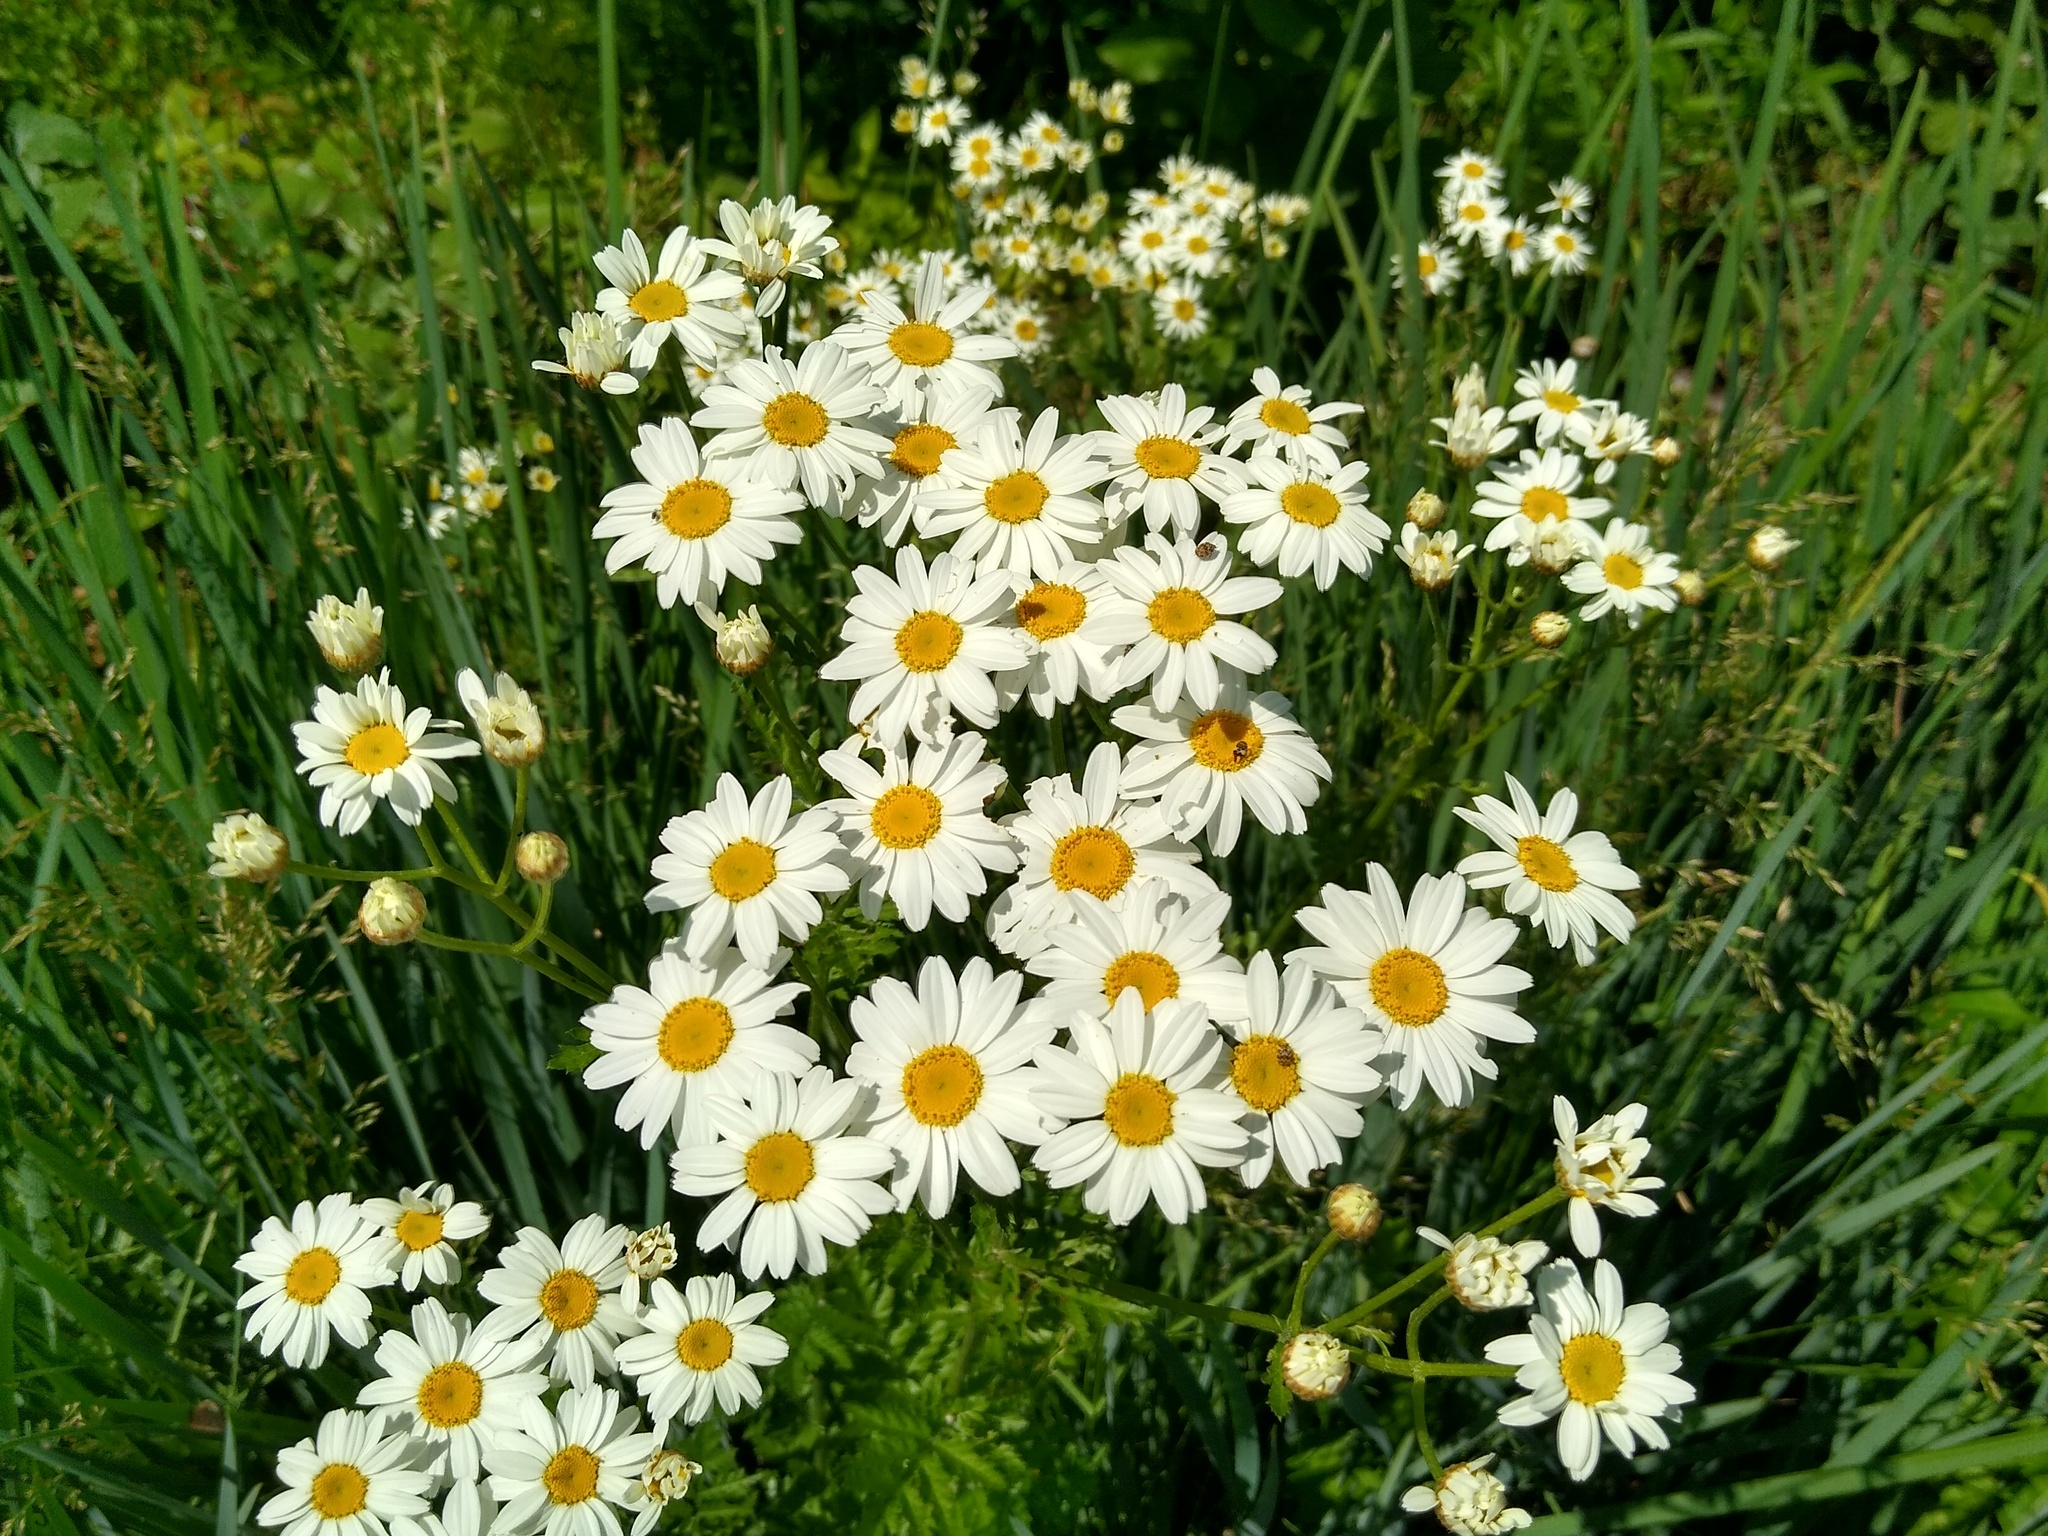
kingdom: Plantae
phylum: Tracheophyta
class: Magnoliopsida
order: Asterales
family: Asteraceae
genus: Tanacetum
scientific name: Tanacetum corymbosum
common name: Scentless feverfew
